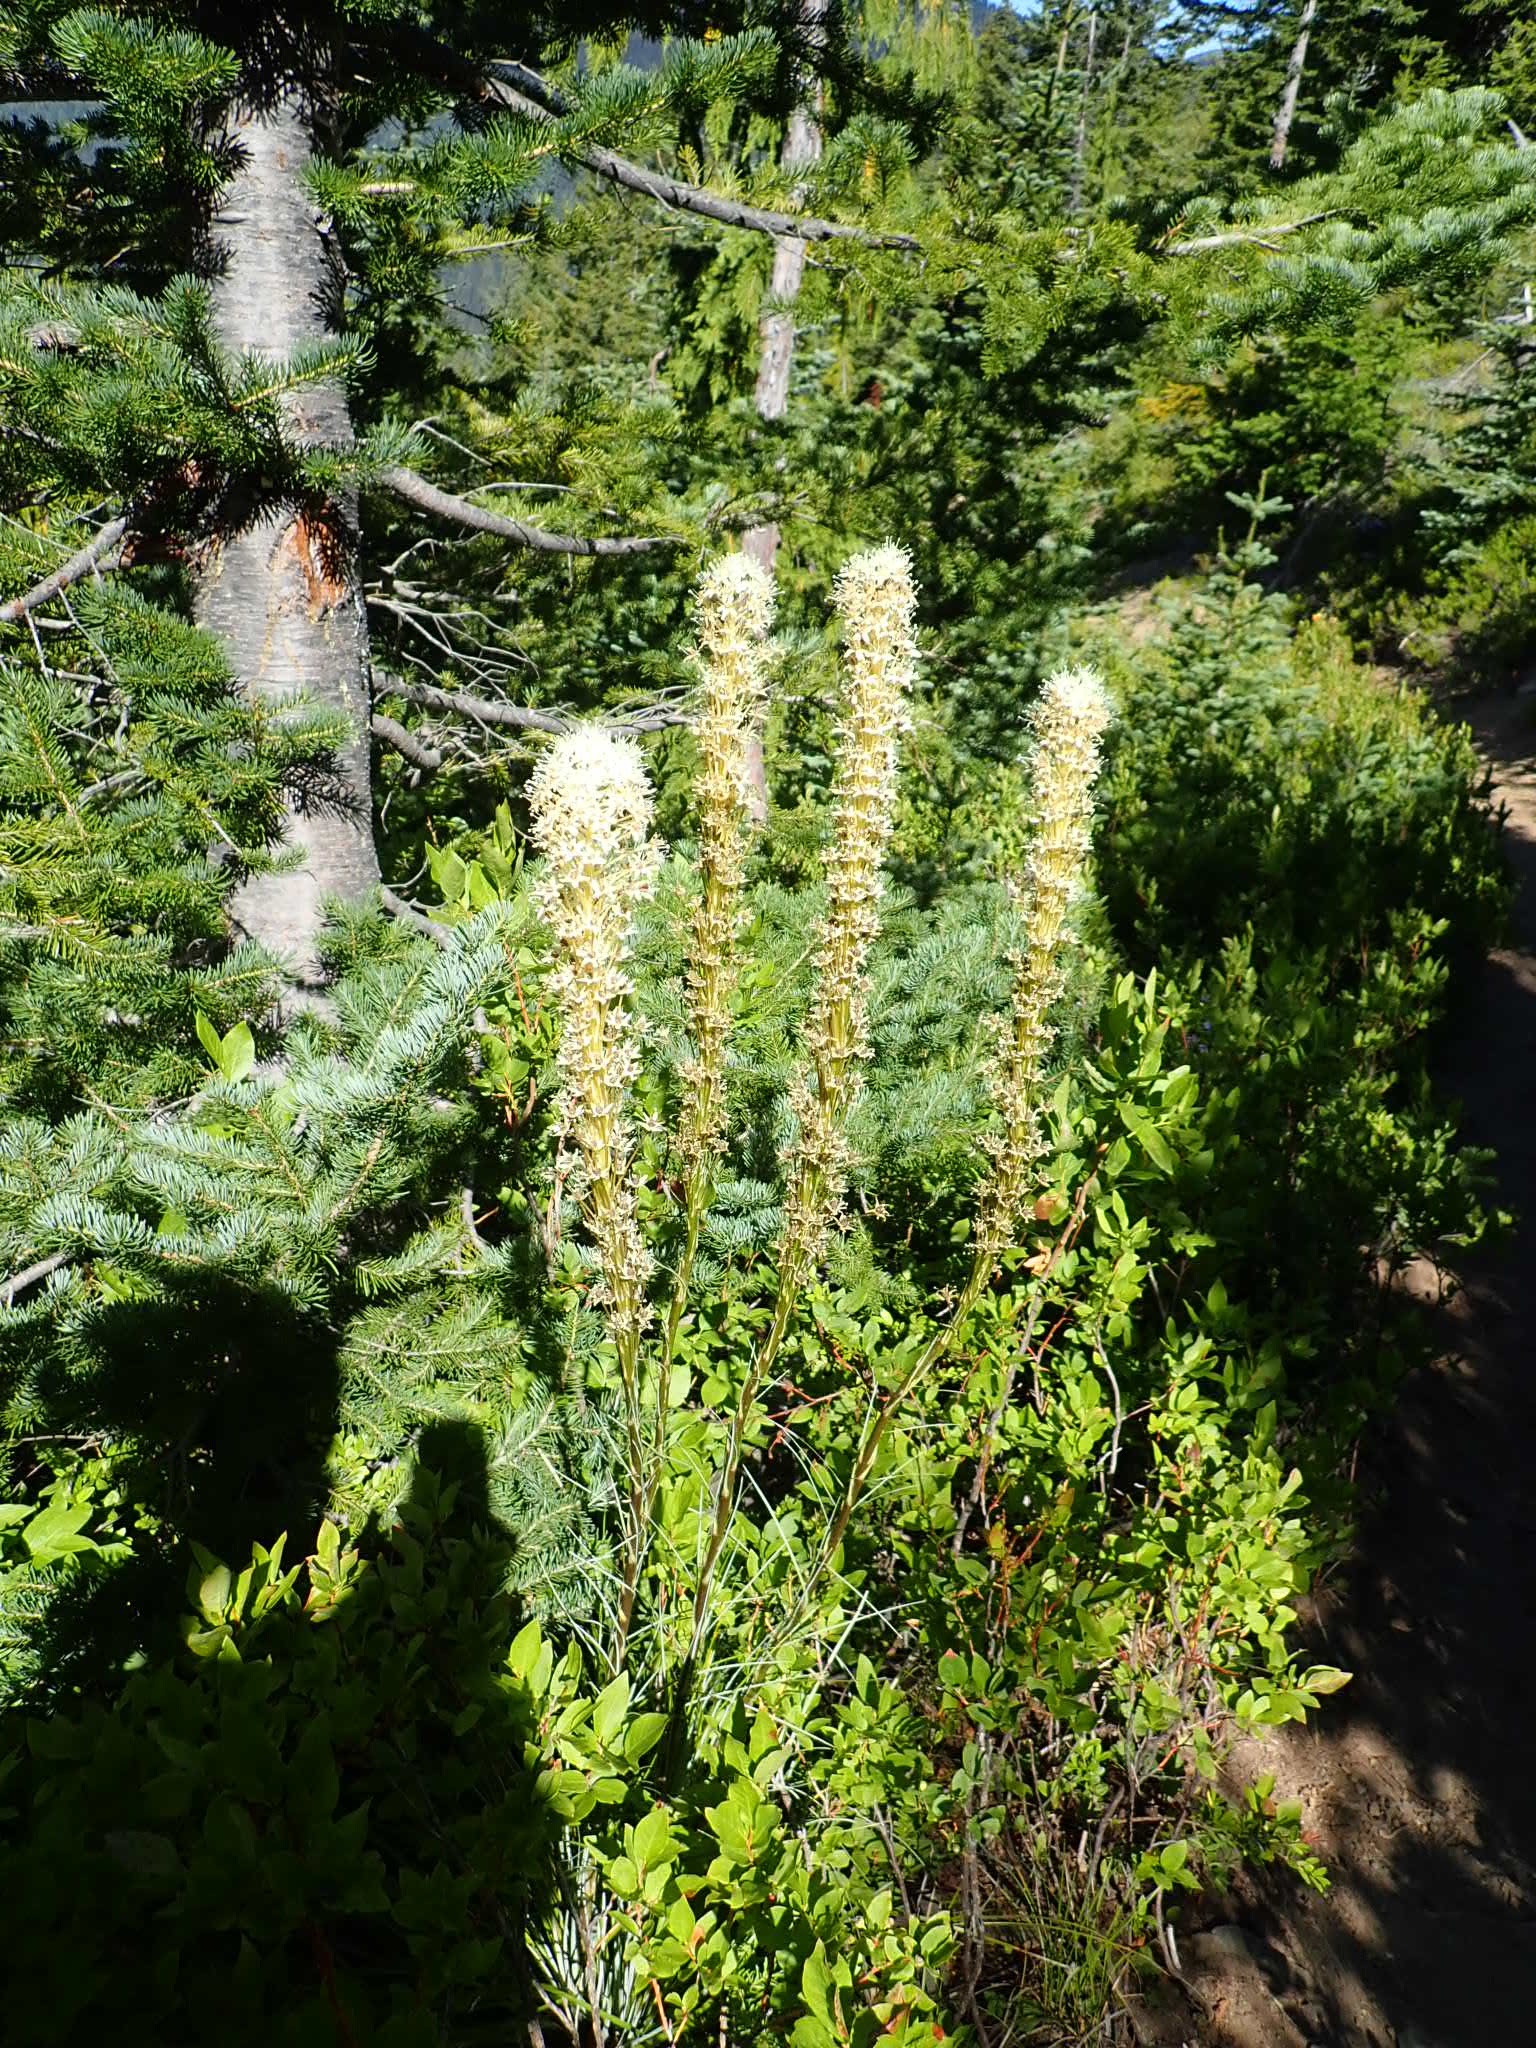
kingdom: Plantae
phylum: Tracheophyta
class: Liliopsida
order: Liliales
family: Melanthiaceae
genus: Xerophyllum
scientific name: Xerophyllum tenax
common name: Bear-grass
